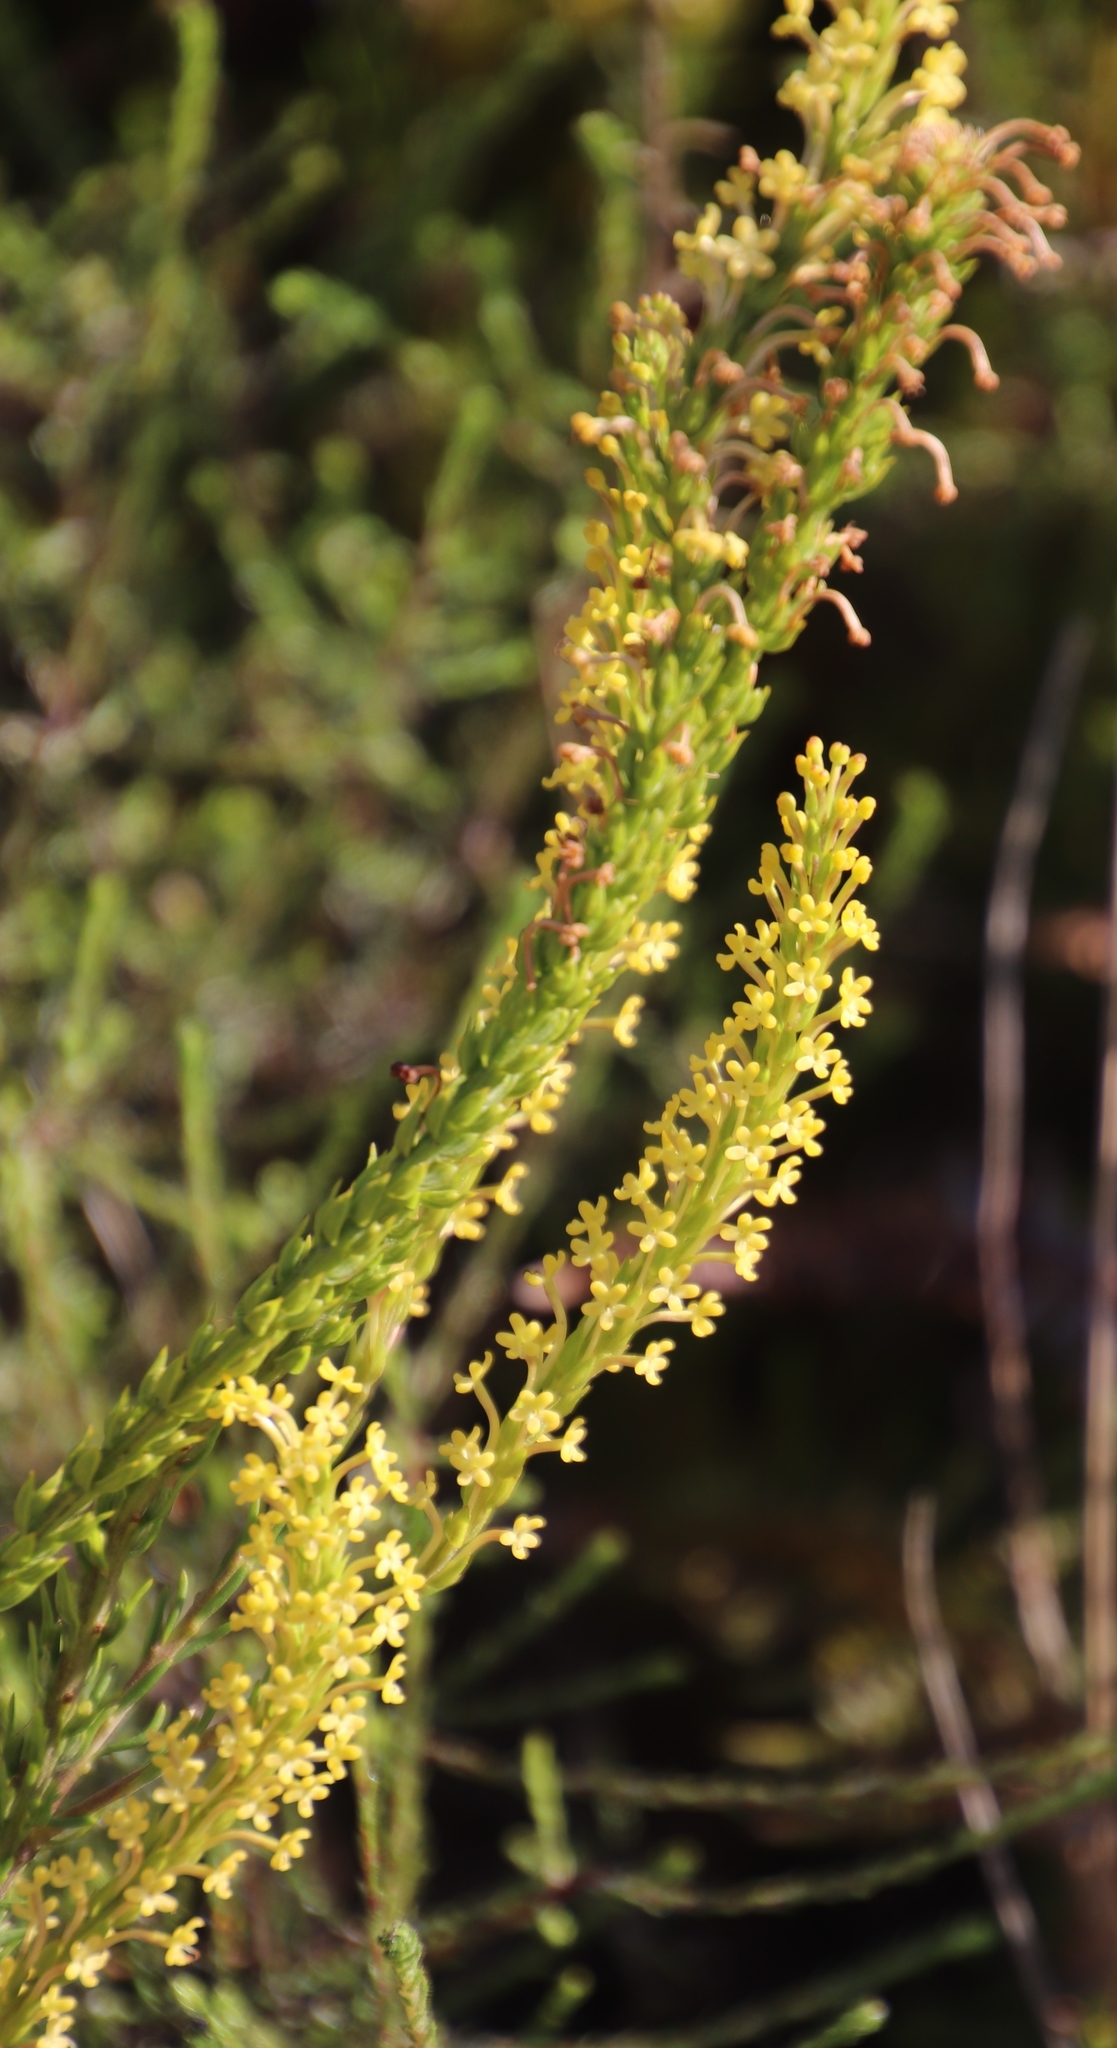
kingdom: Plantae
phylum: Tracheophyta
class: Magnoliopsida
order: Lamiales
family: Scrophulariaceae
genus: Microdon
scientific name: Microdon dubius
